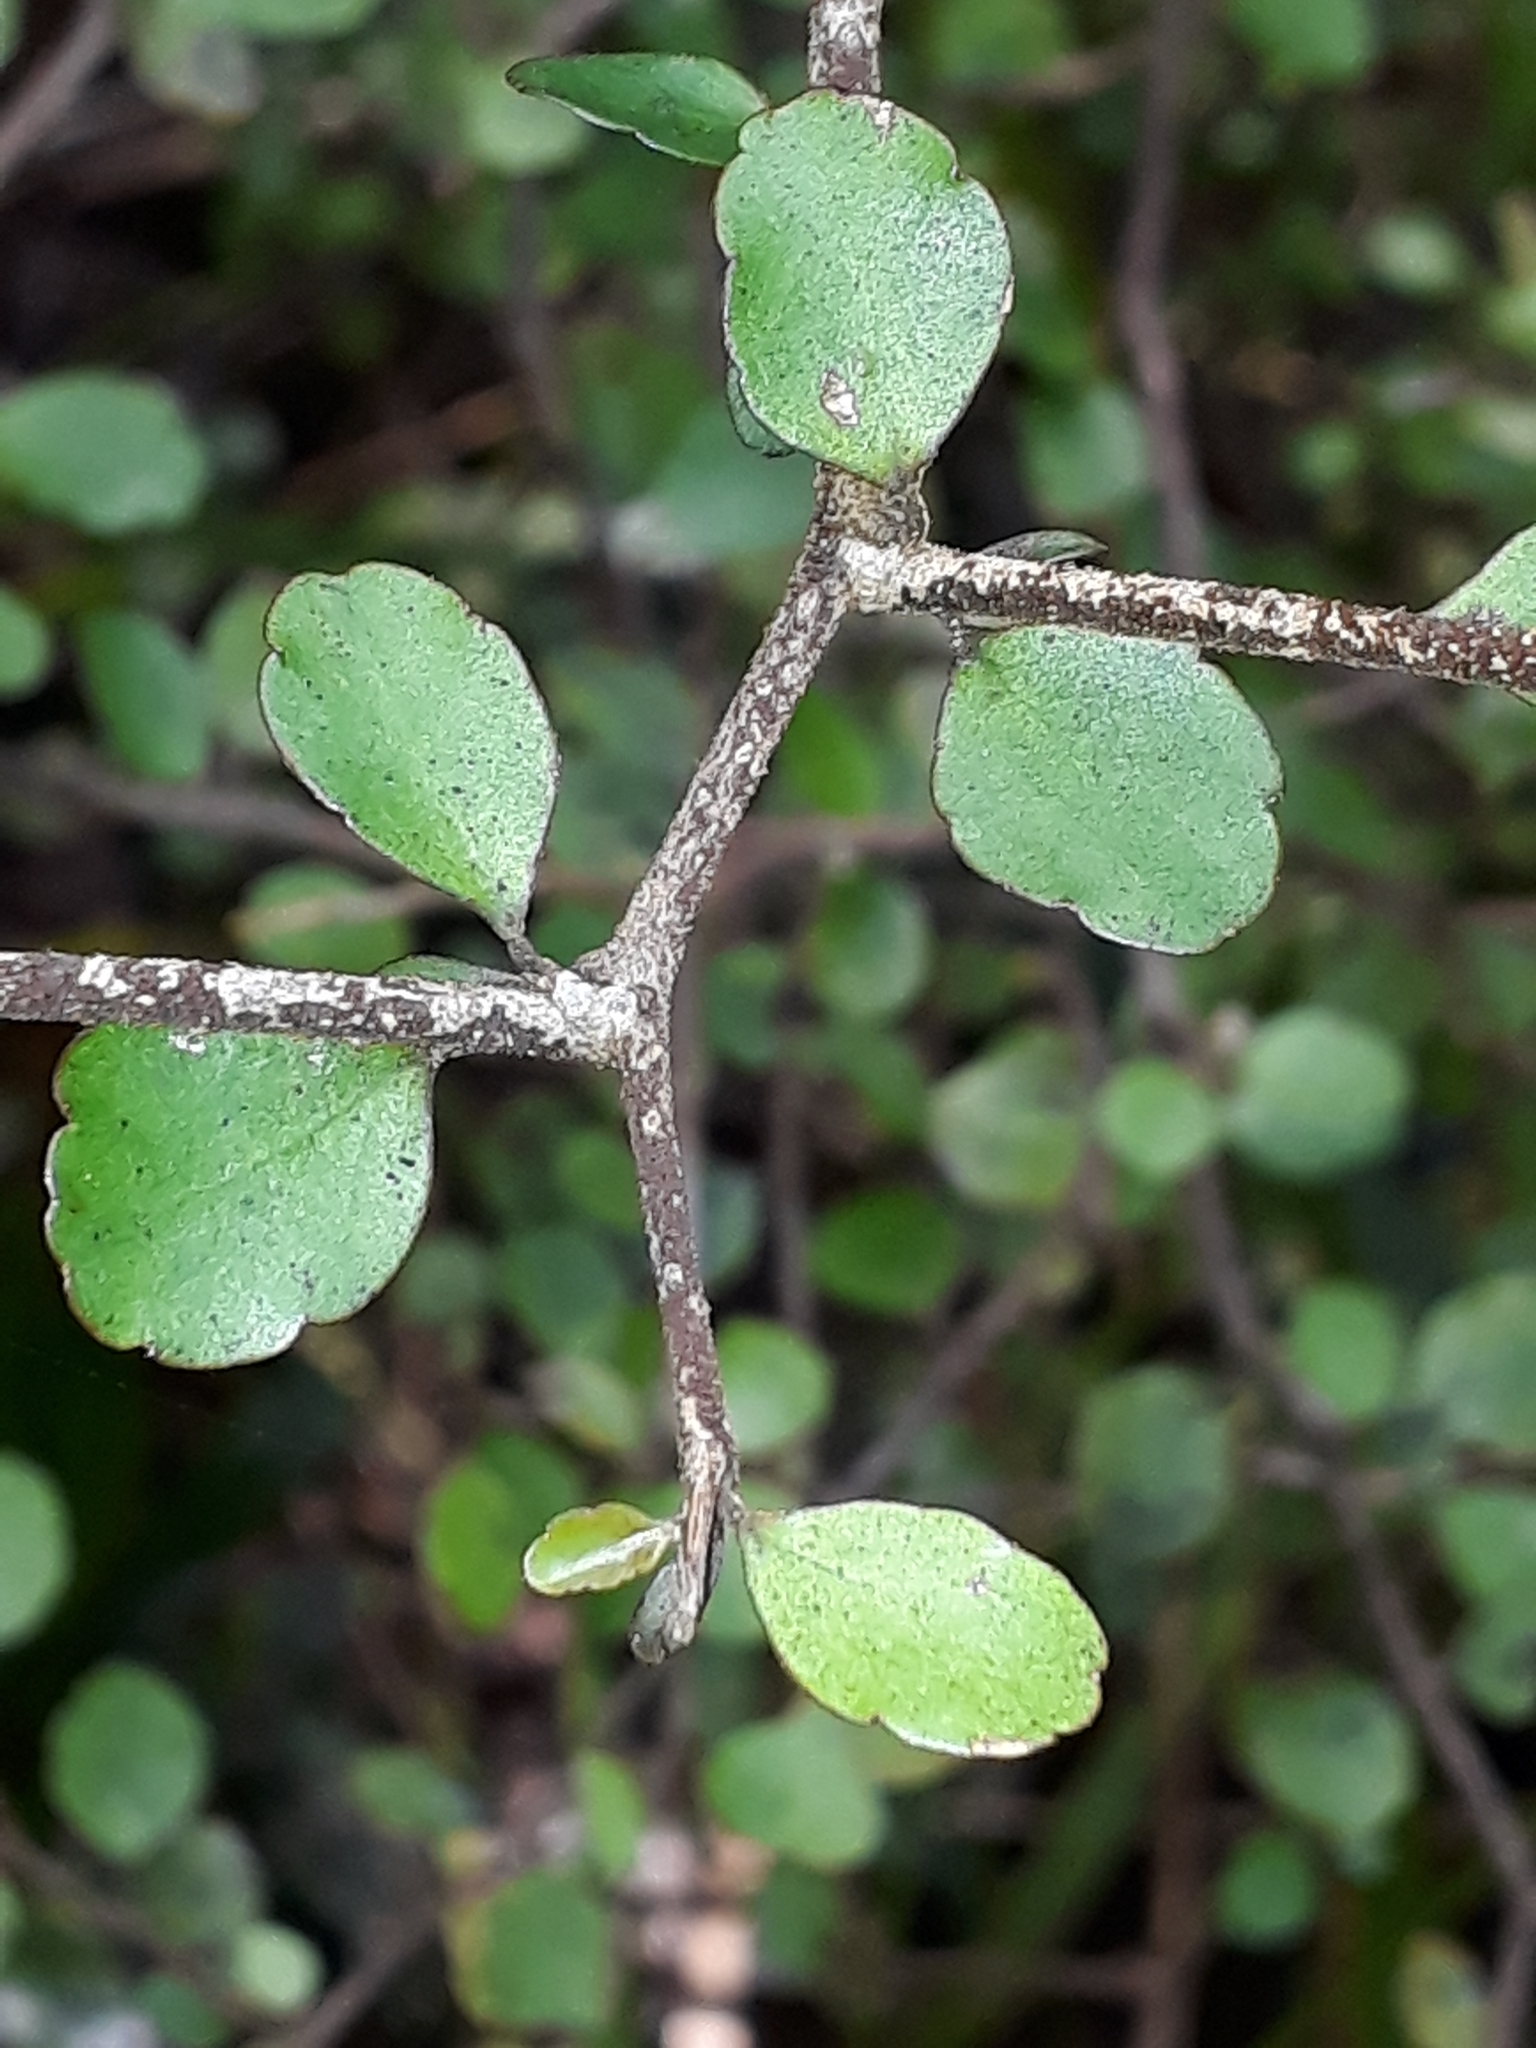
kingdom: Plantae
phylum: Tracheophyta
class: Magnoliopsida
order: Apiales
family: Araliaceae
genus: Raukaua
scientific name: Raukaua anomalus
